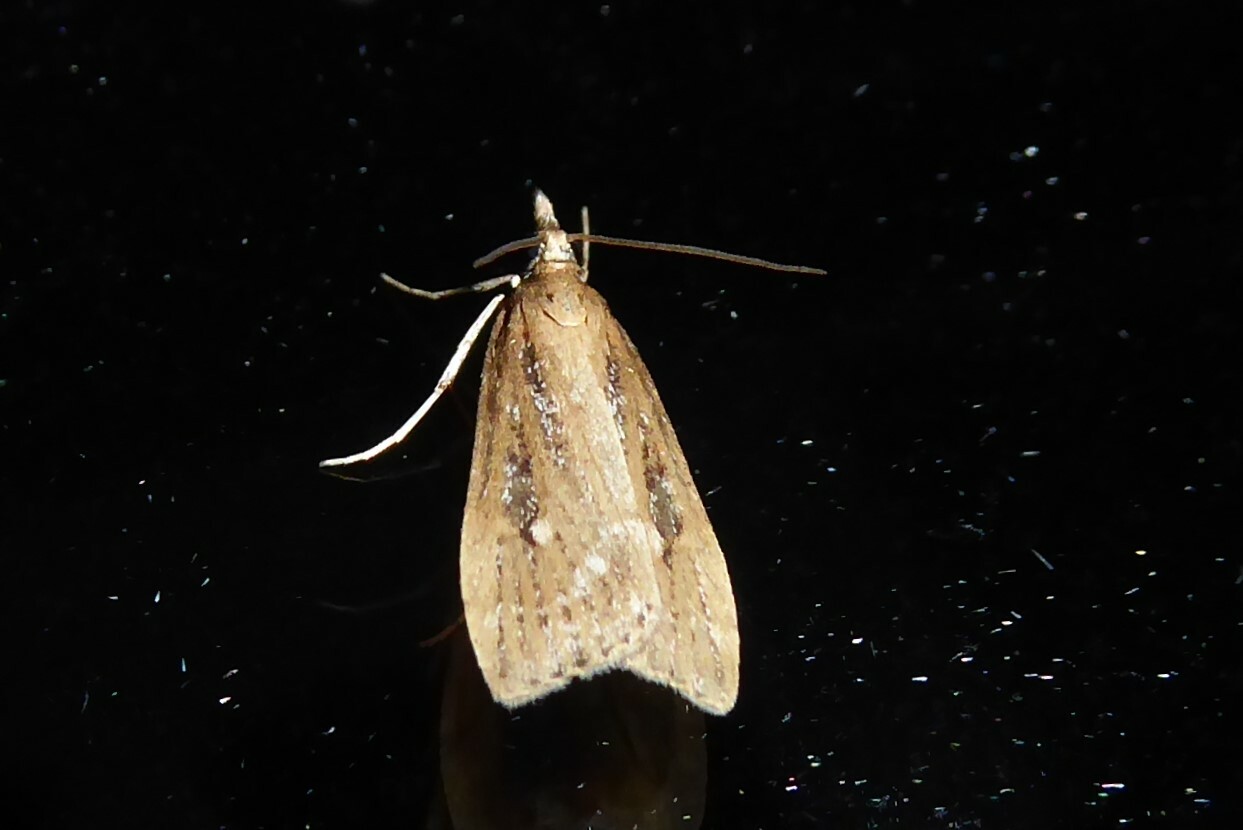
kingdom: Animalia
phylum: Arthropoda
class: Insecta
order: Lepidoptera
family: Crambidae
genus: Eudonia
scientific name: Eudonia octophora
